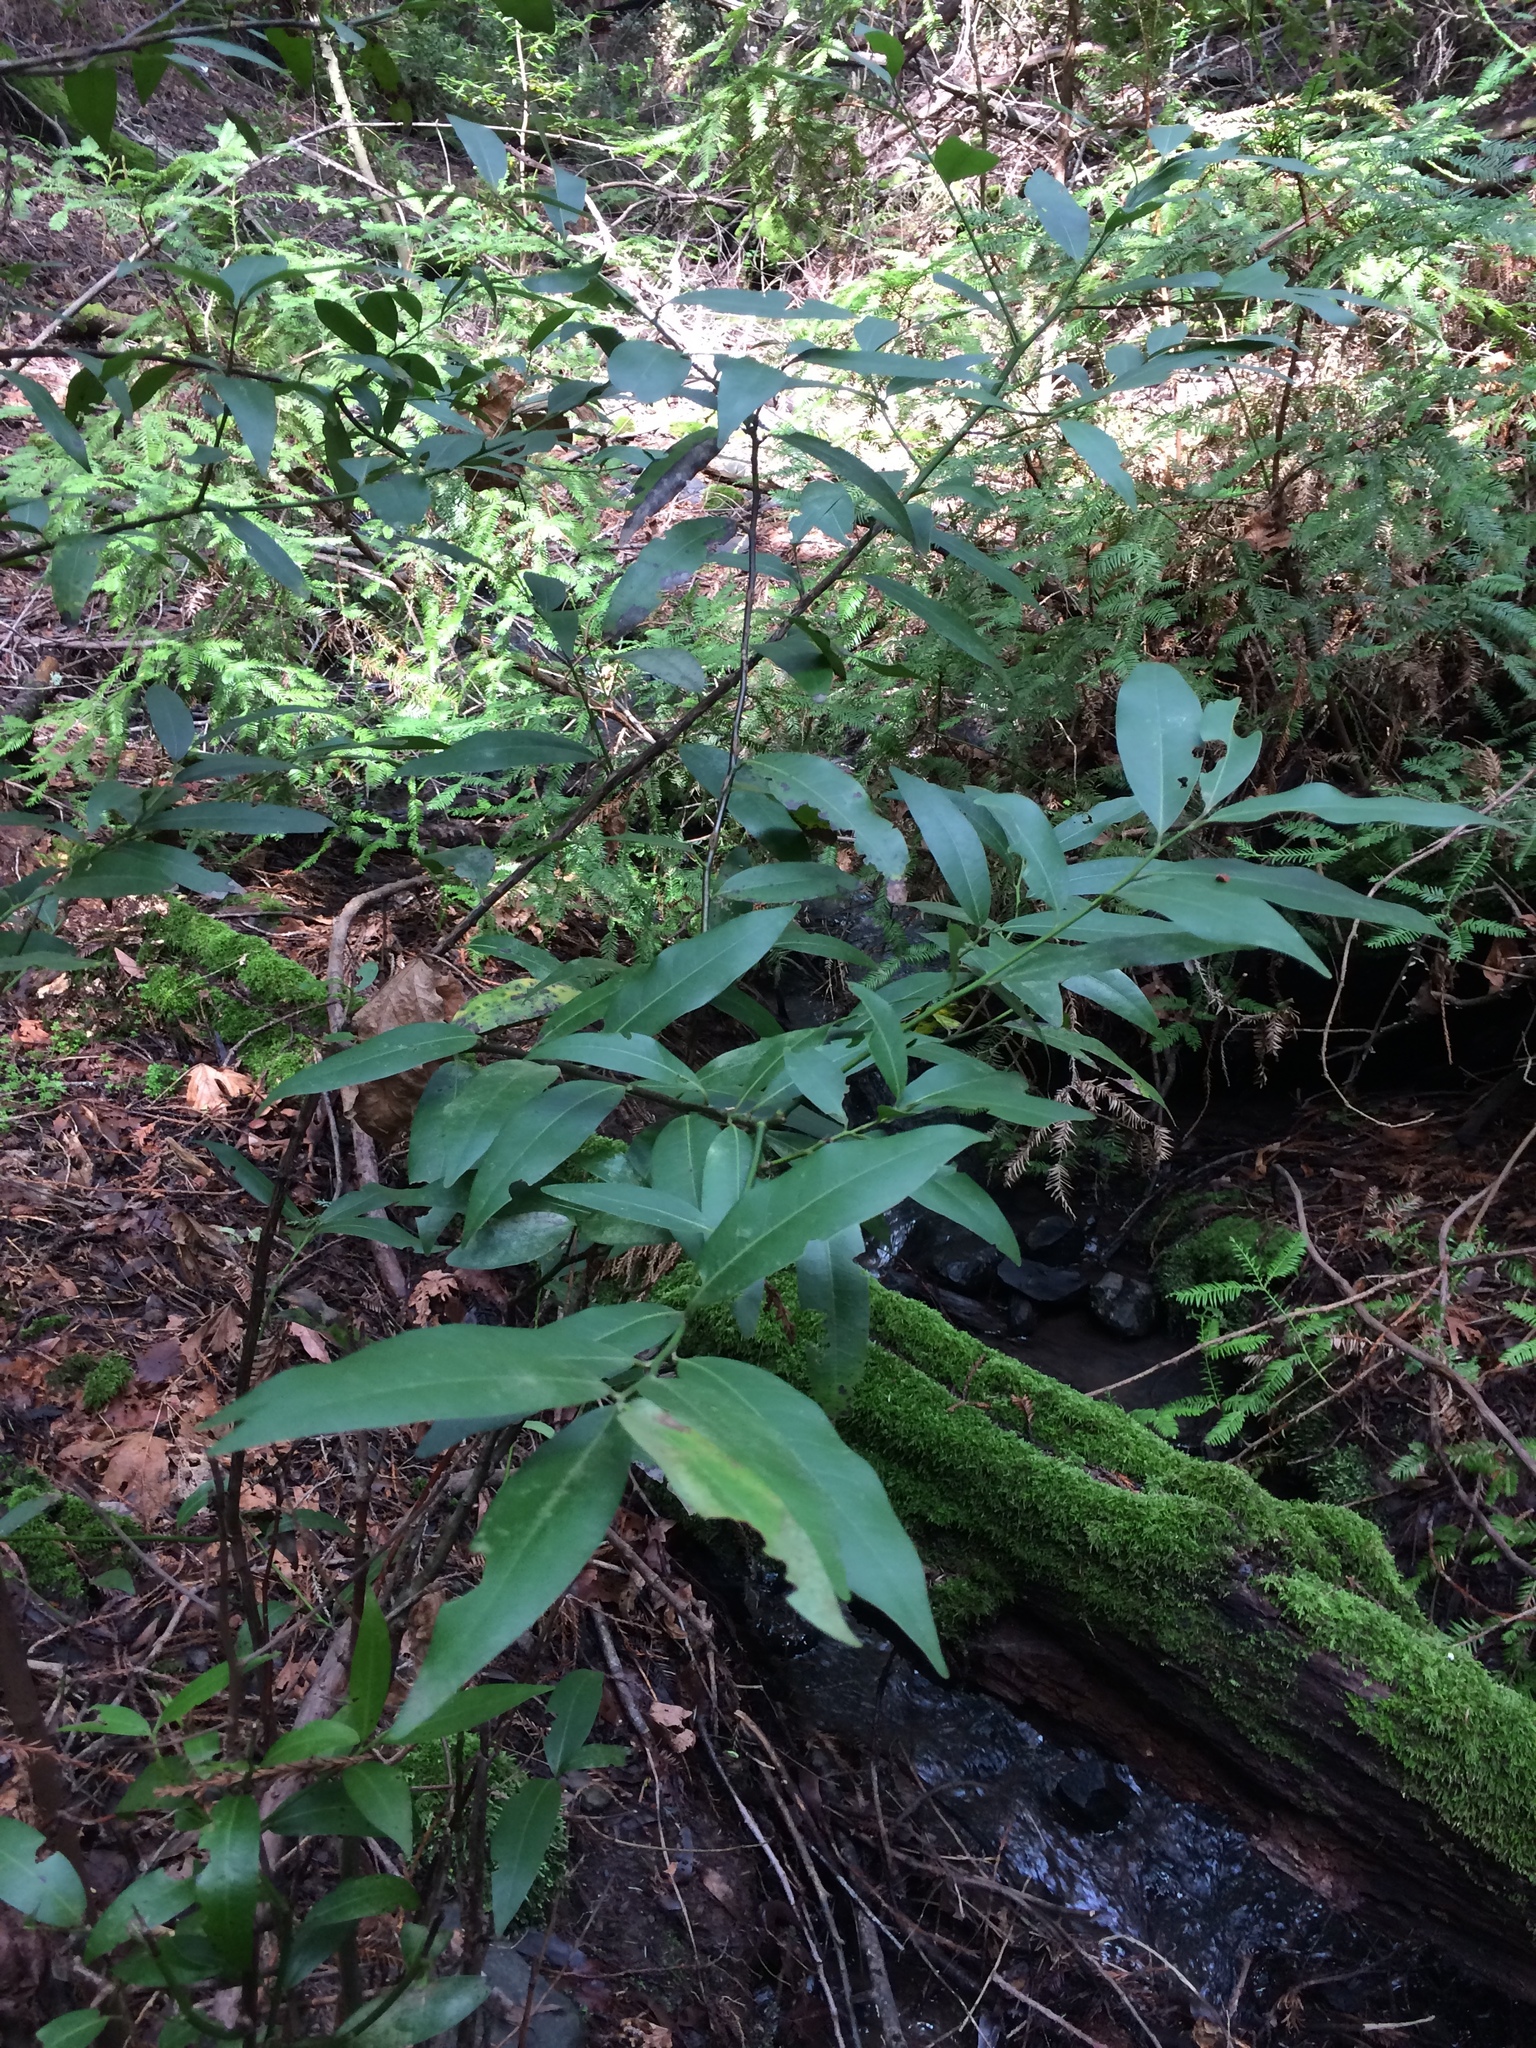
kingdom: Plantae
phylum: Tracheophyta
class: Magnoliopsida
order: Laurales
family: Lauraceae
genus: Umbellularia
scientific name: Umbellularia californica
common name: California bay
